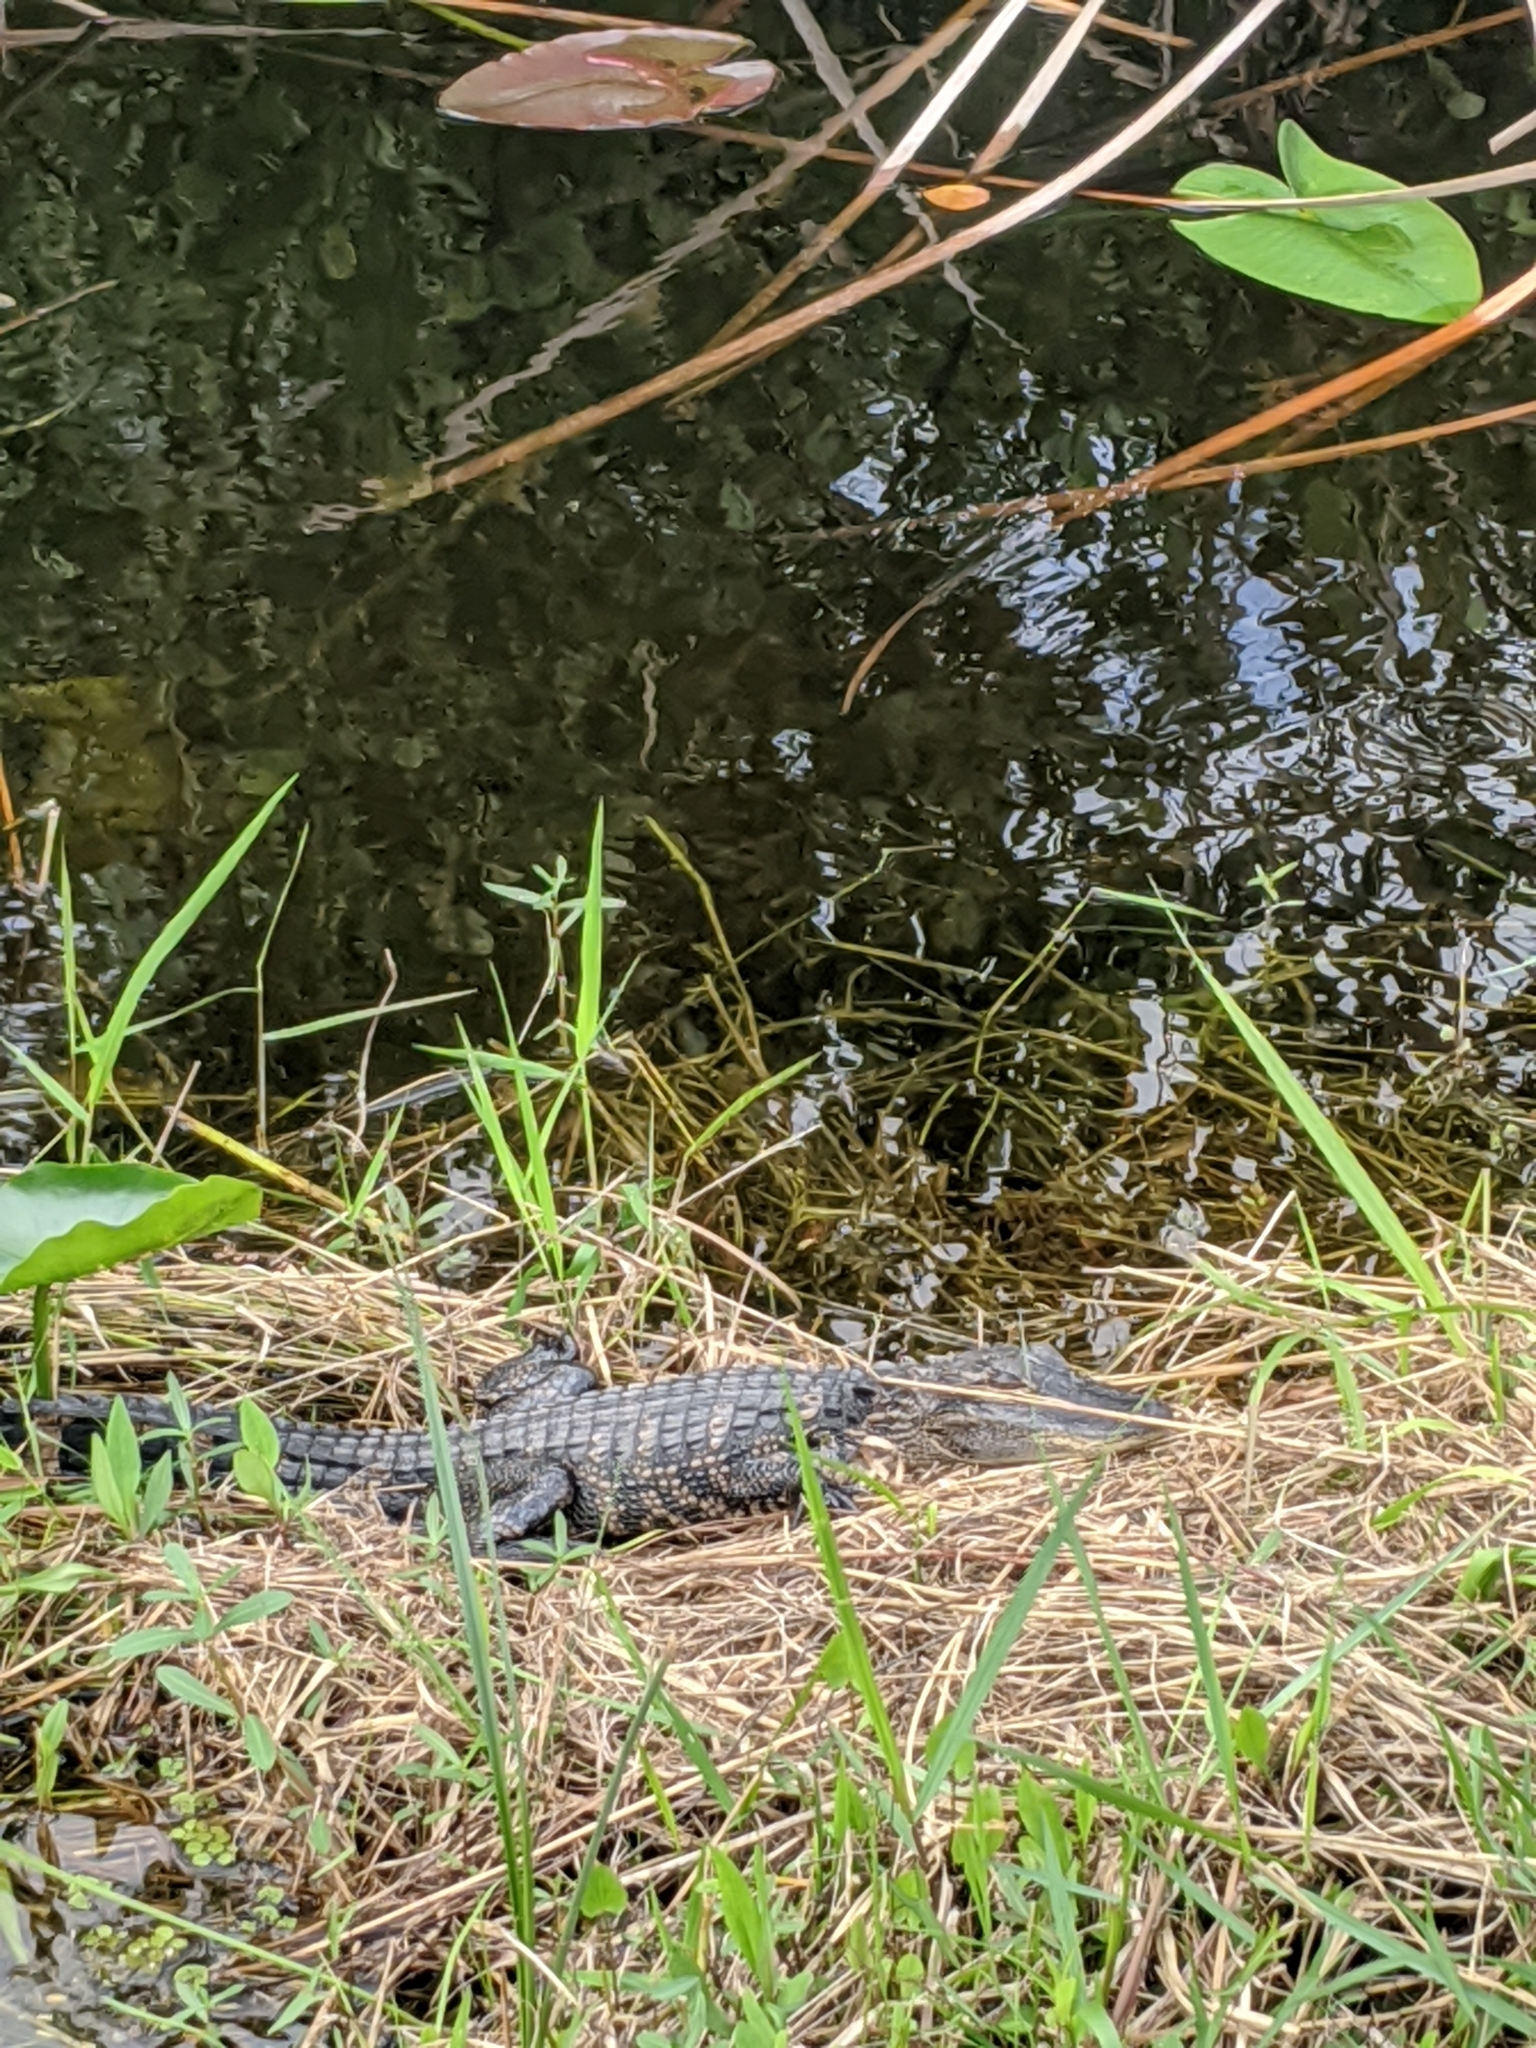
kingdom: Animalia
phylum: Chordata
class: Crocodylia
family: Alligatoridae
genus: Alligator
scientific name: Alligator mississippiensis
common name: American alligator
